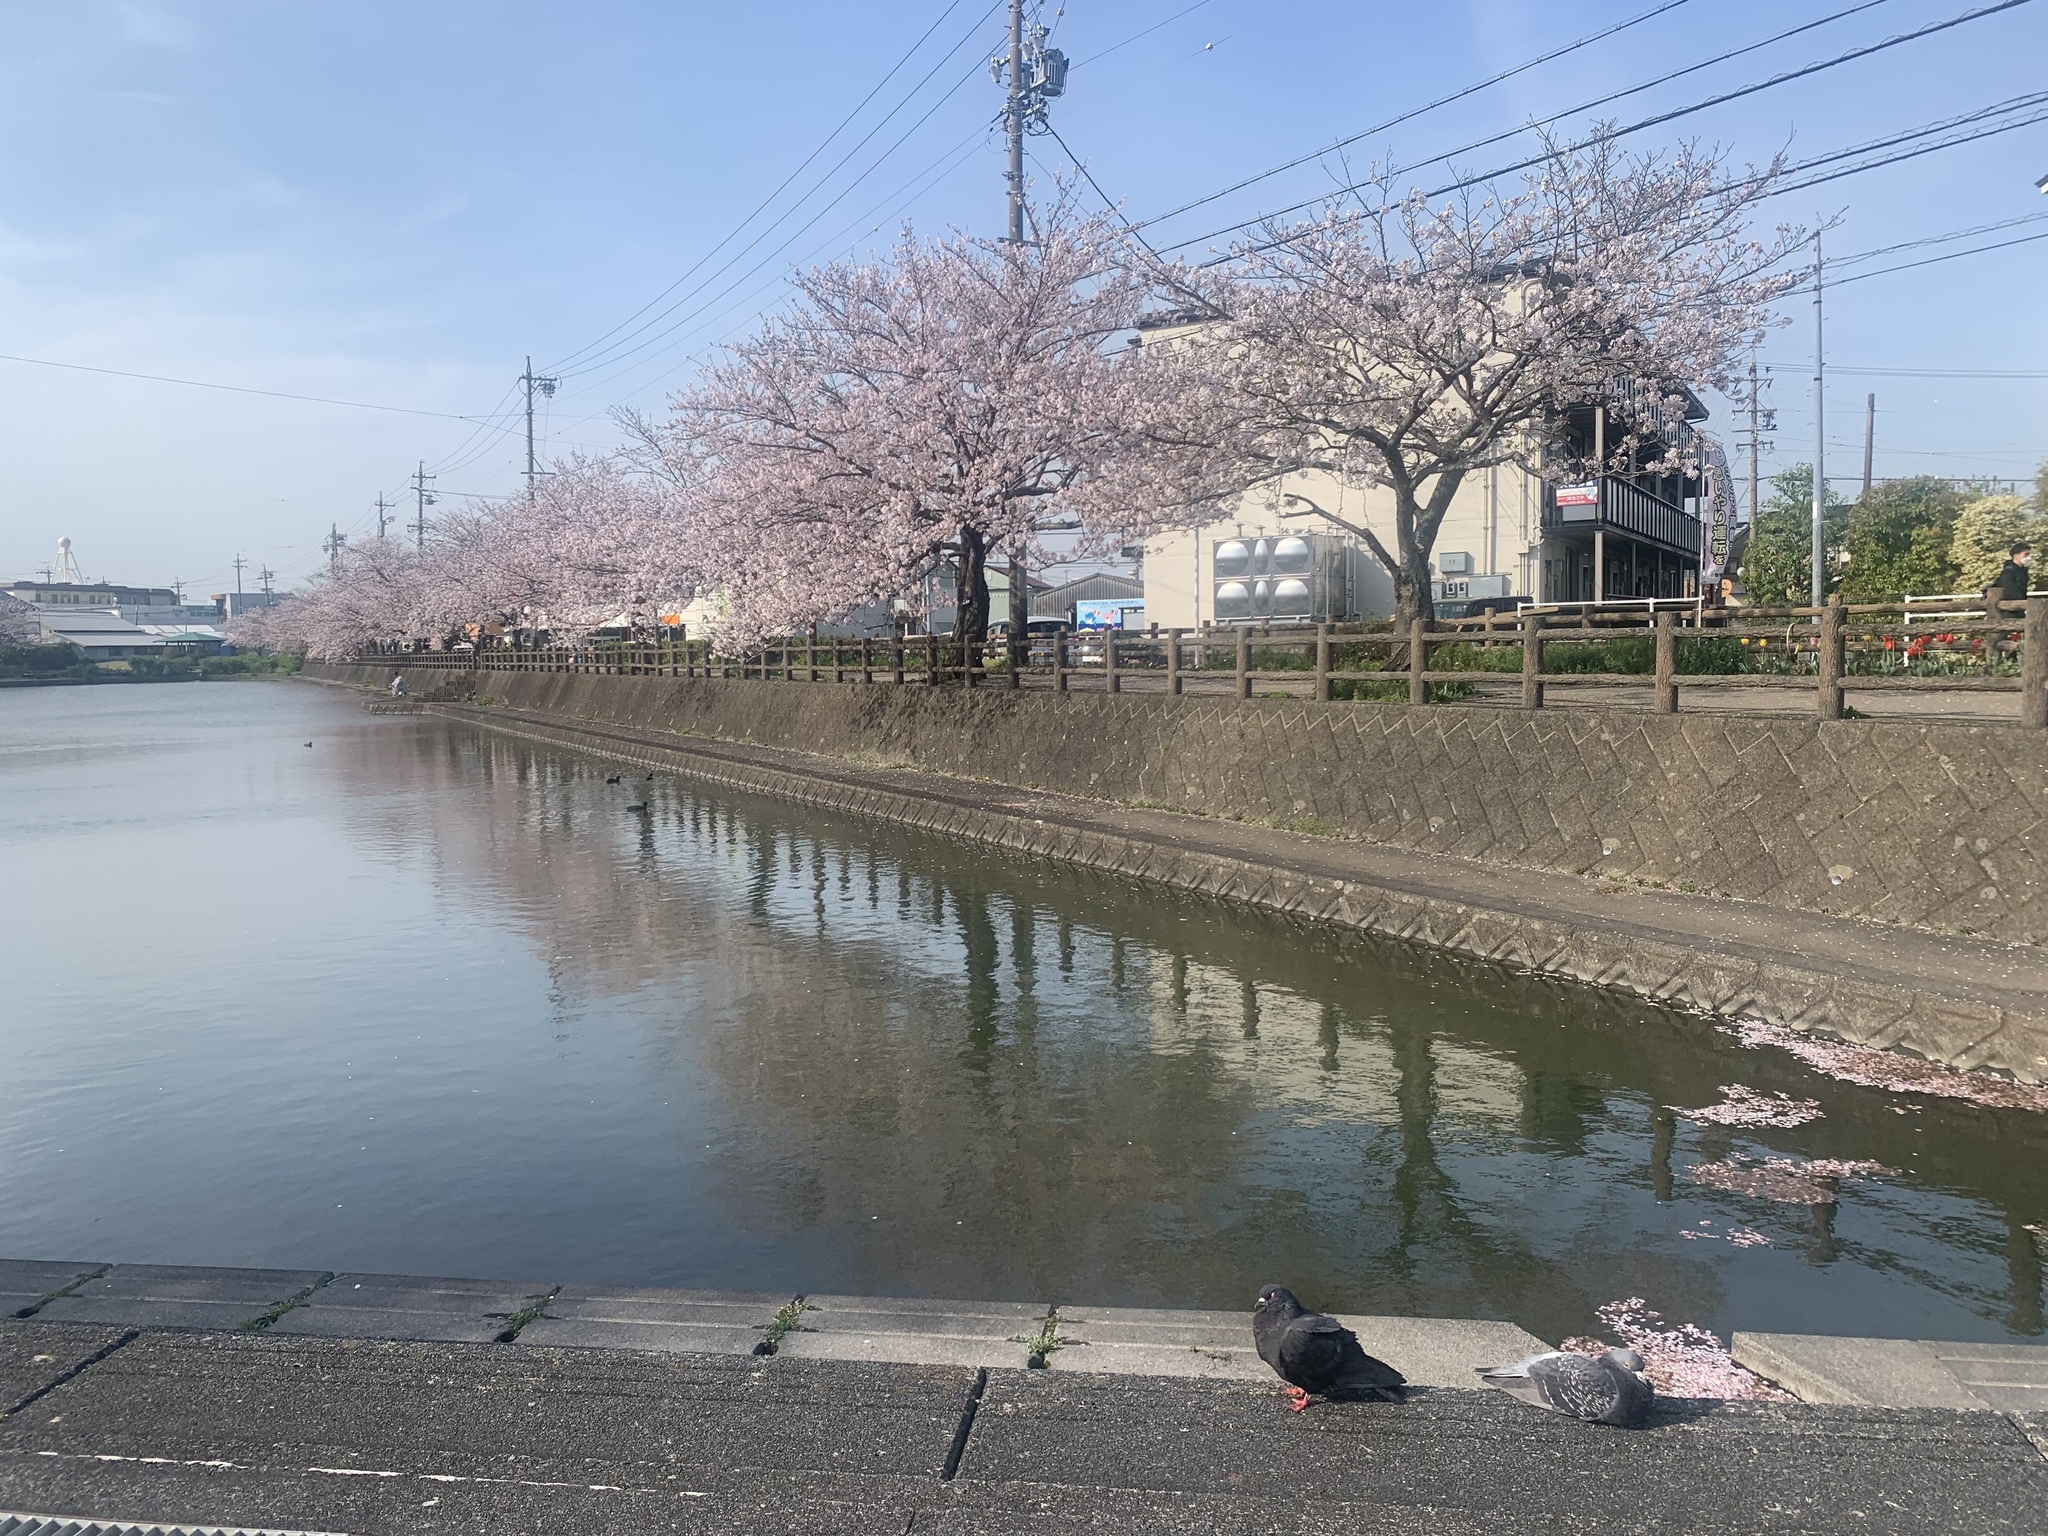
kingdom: Animalia
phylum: Chordata
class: Aves
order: Columbiformes
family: Columbidae
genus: Columba
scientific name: Columba livia
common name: Rock pigeon
